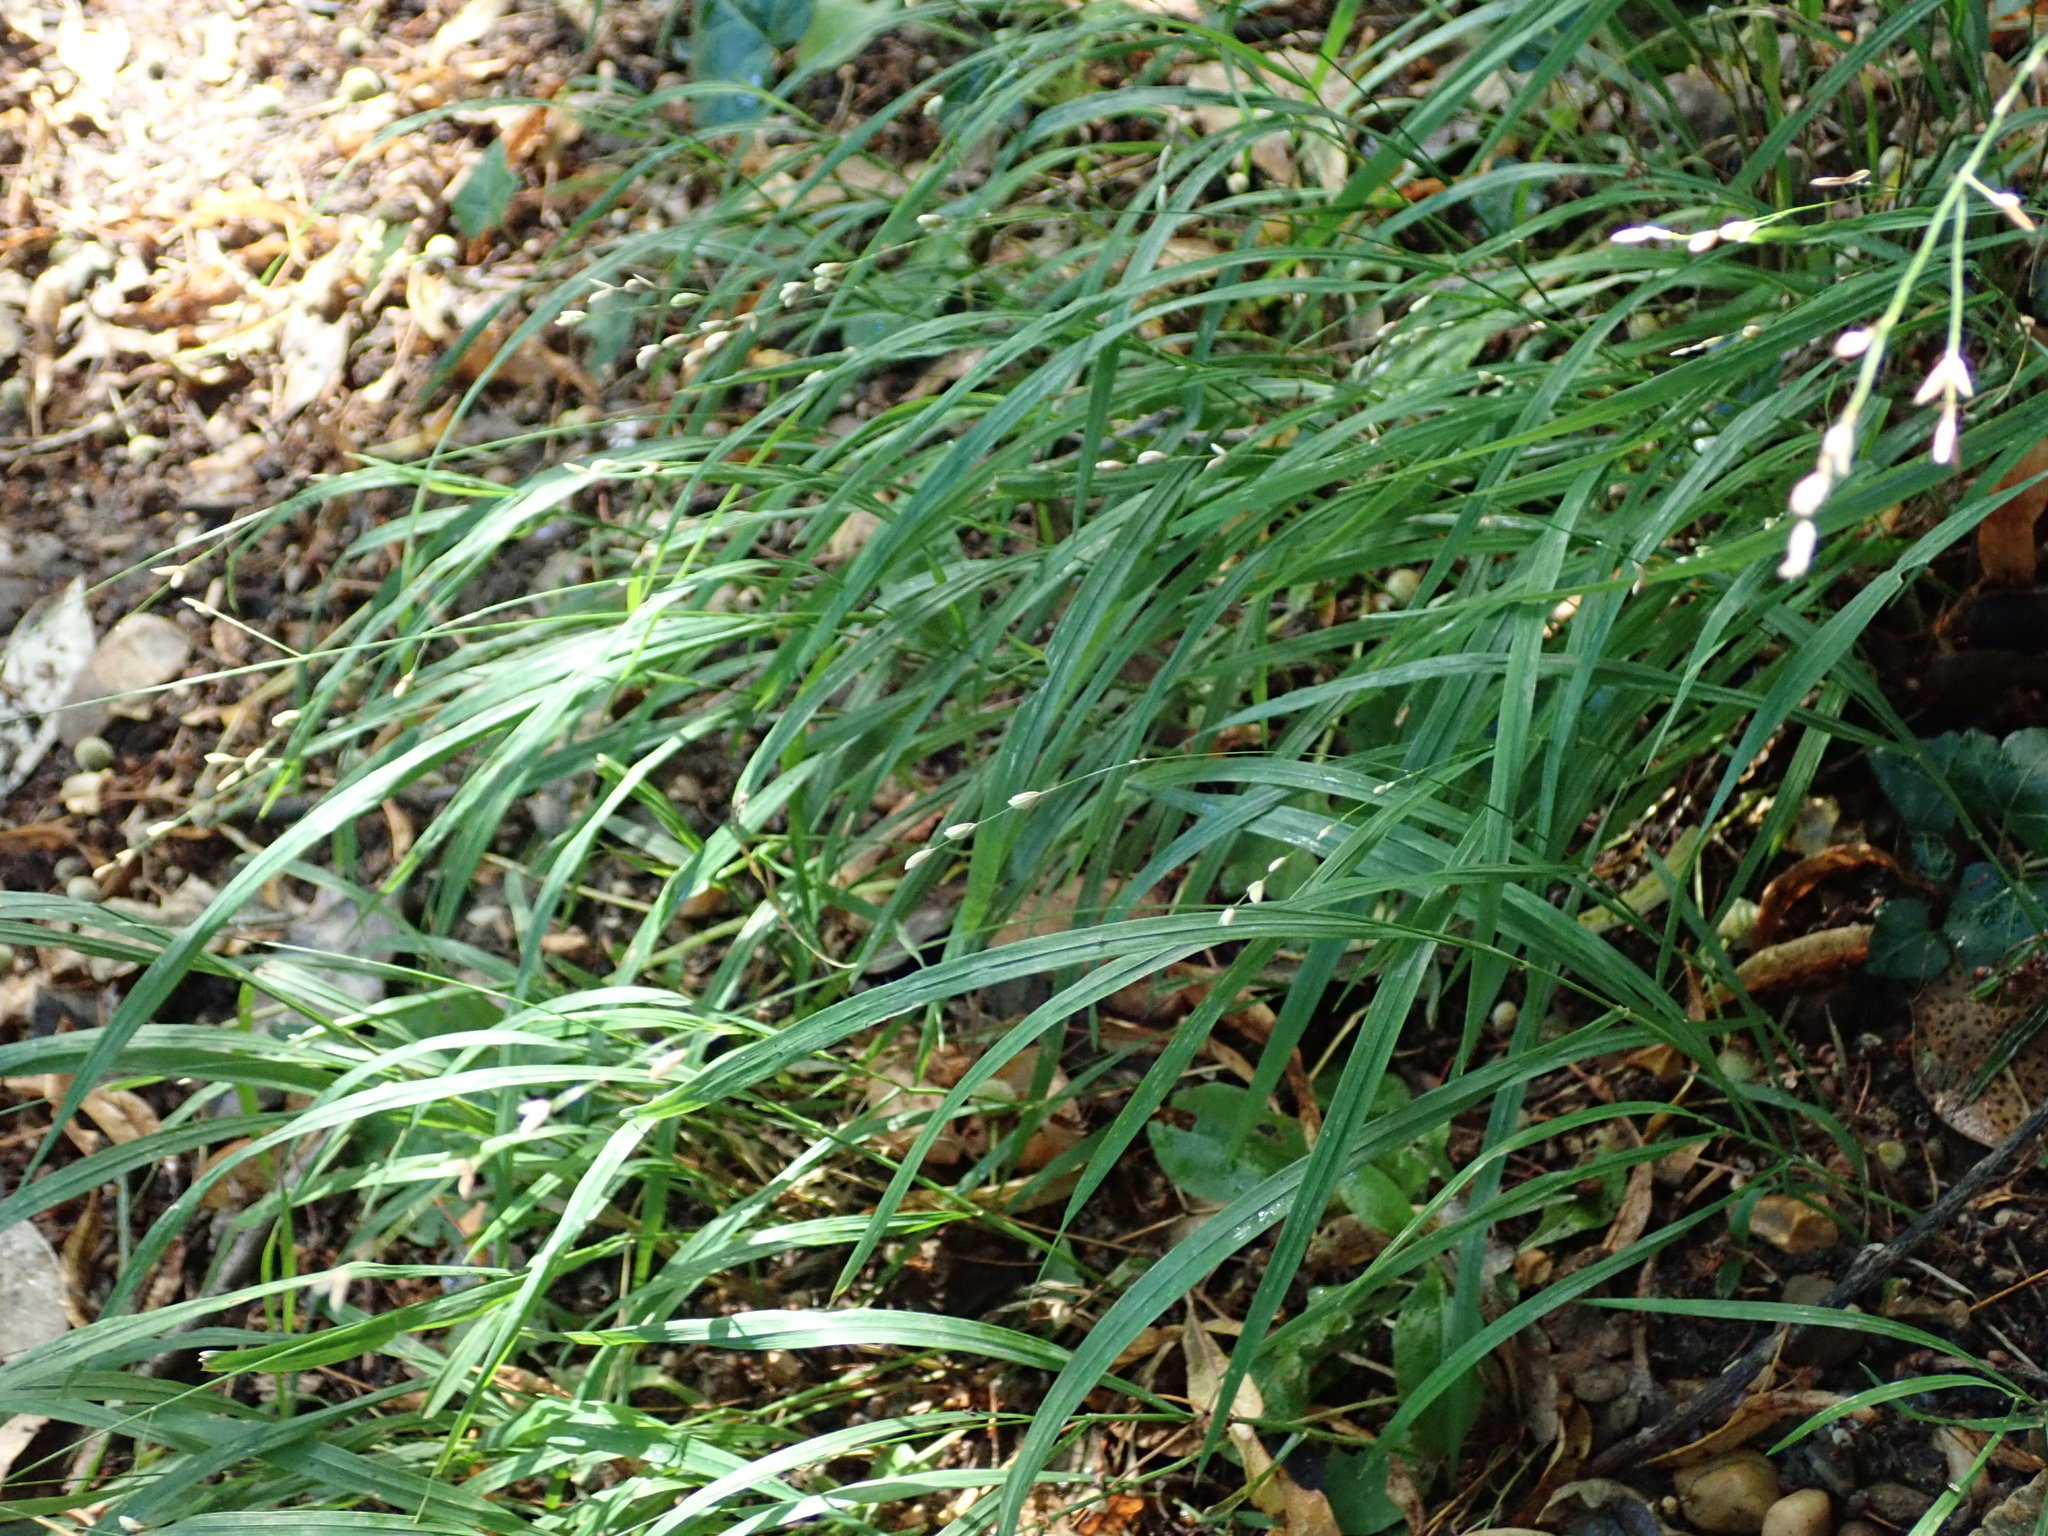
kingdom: Plantae
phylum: Tracheophyta
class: Liliopsida
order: Poales
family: Poaceae
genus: Melica
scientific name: Melica uniflora
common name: Wood melick
